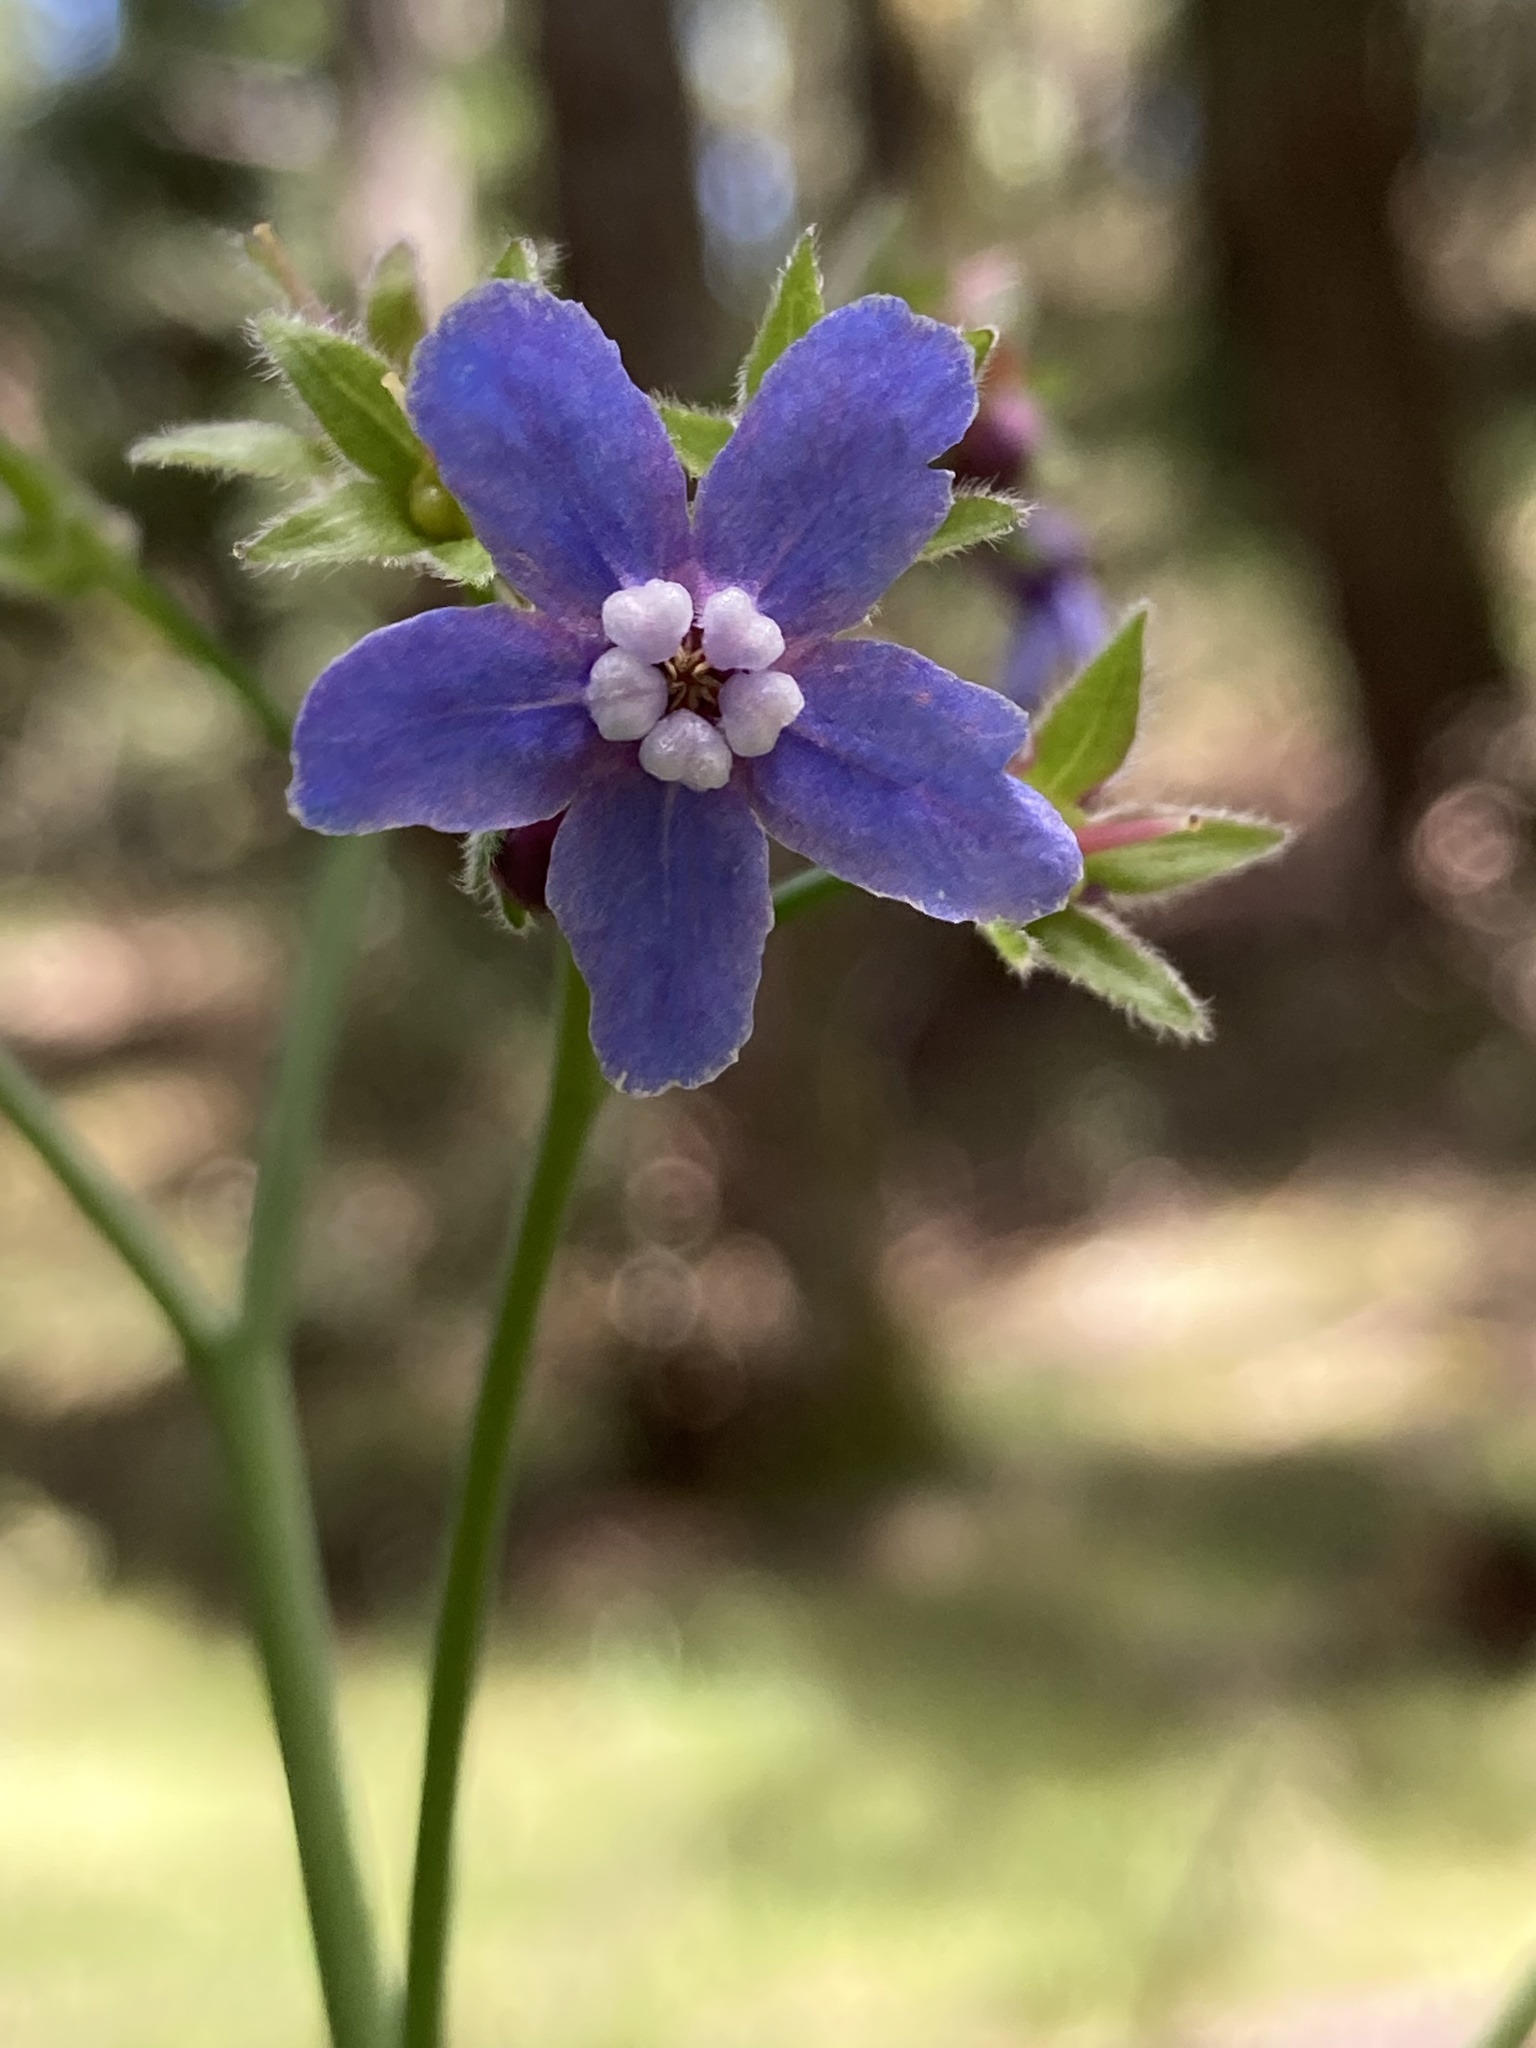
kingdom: Plantae
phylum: Tracheophyta
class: Magnoliopsida
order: Boraginales
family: Boraginaceae
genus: Adelinia
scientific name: Adelinia grande
